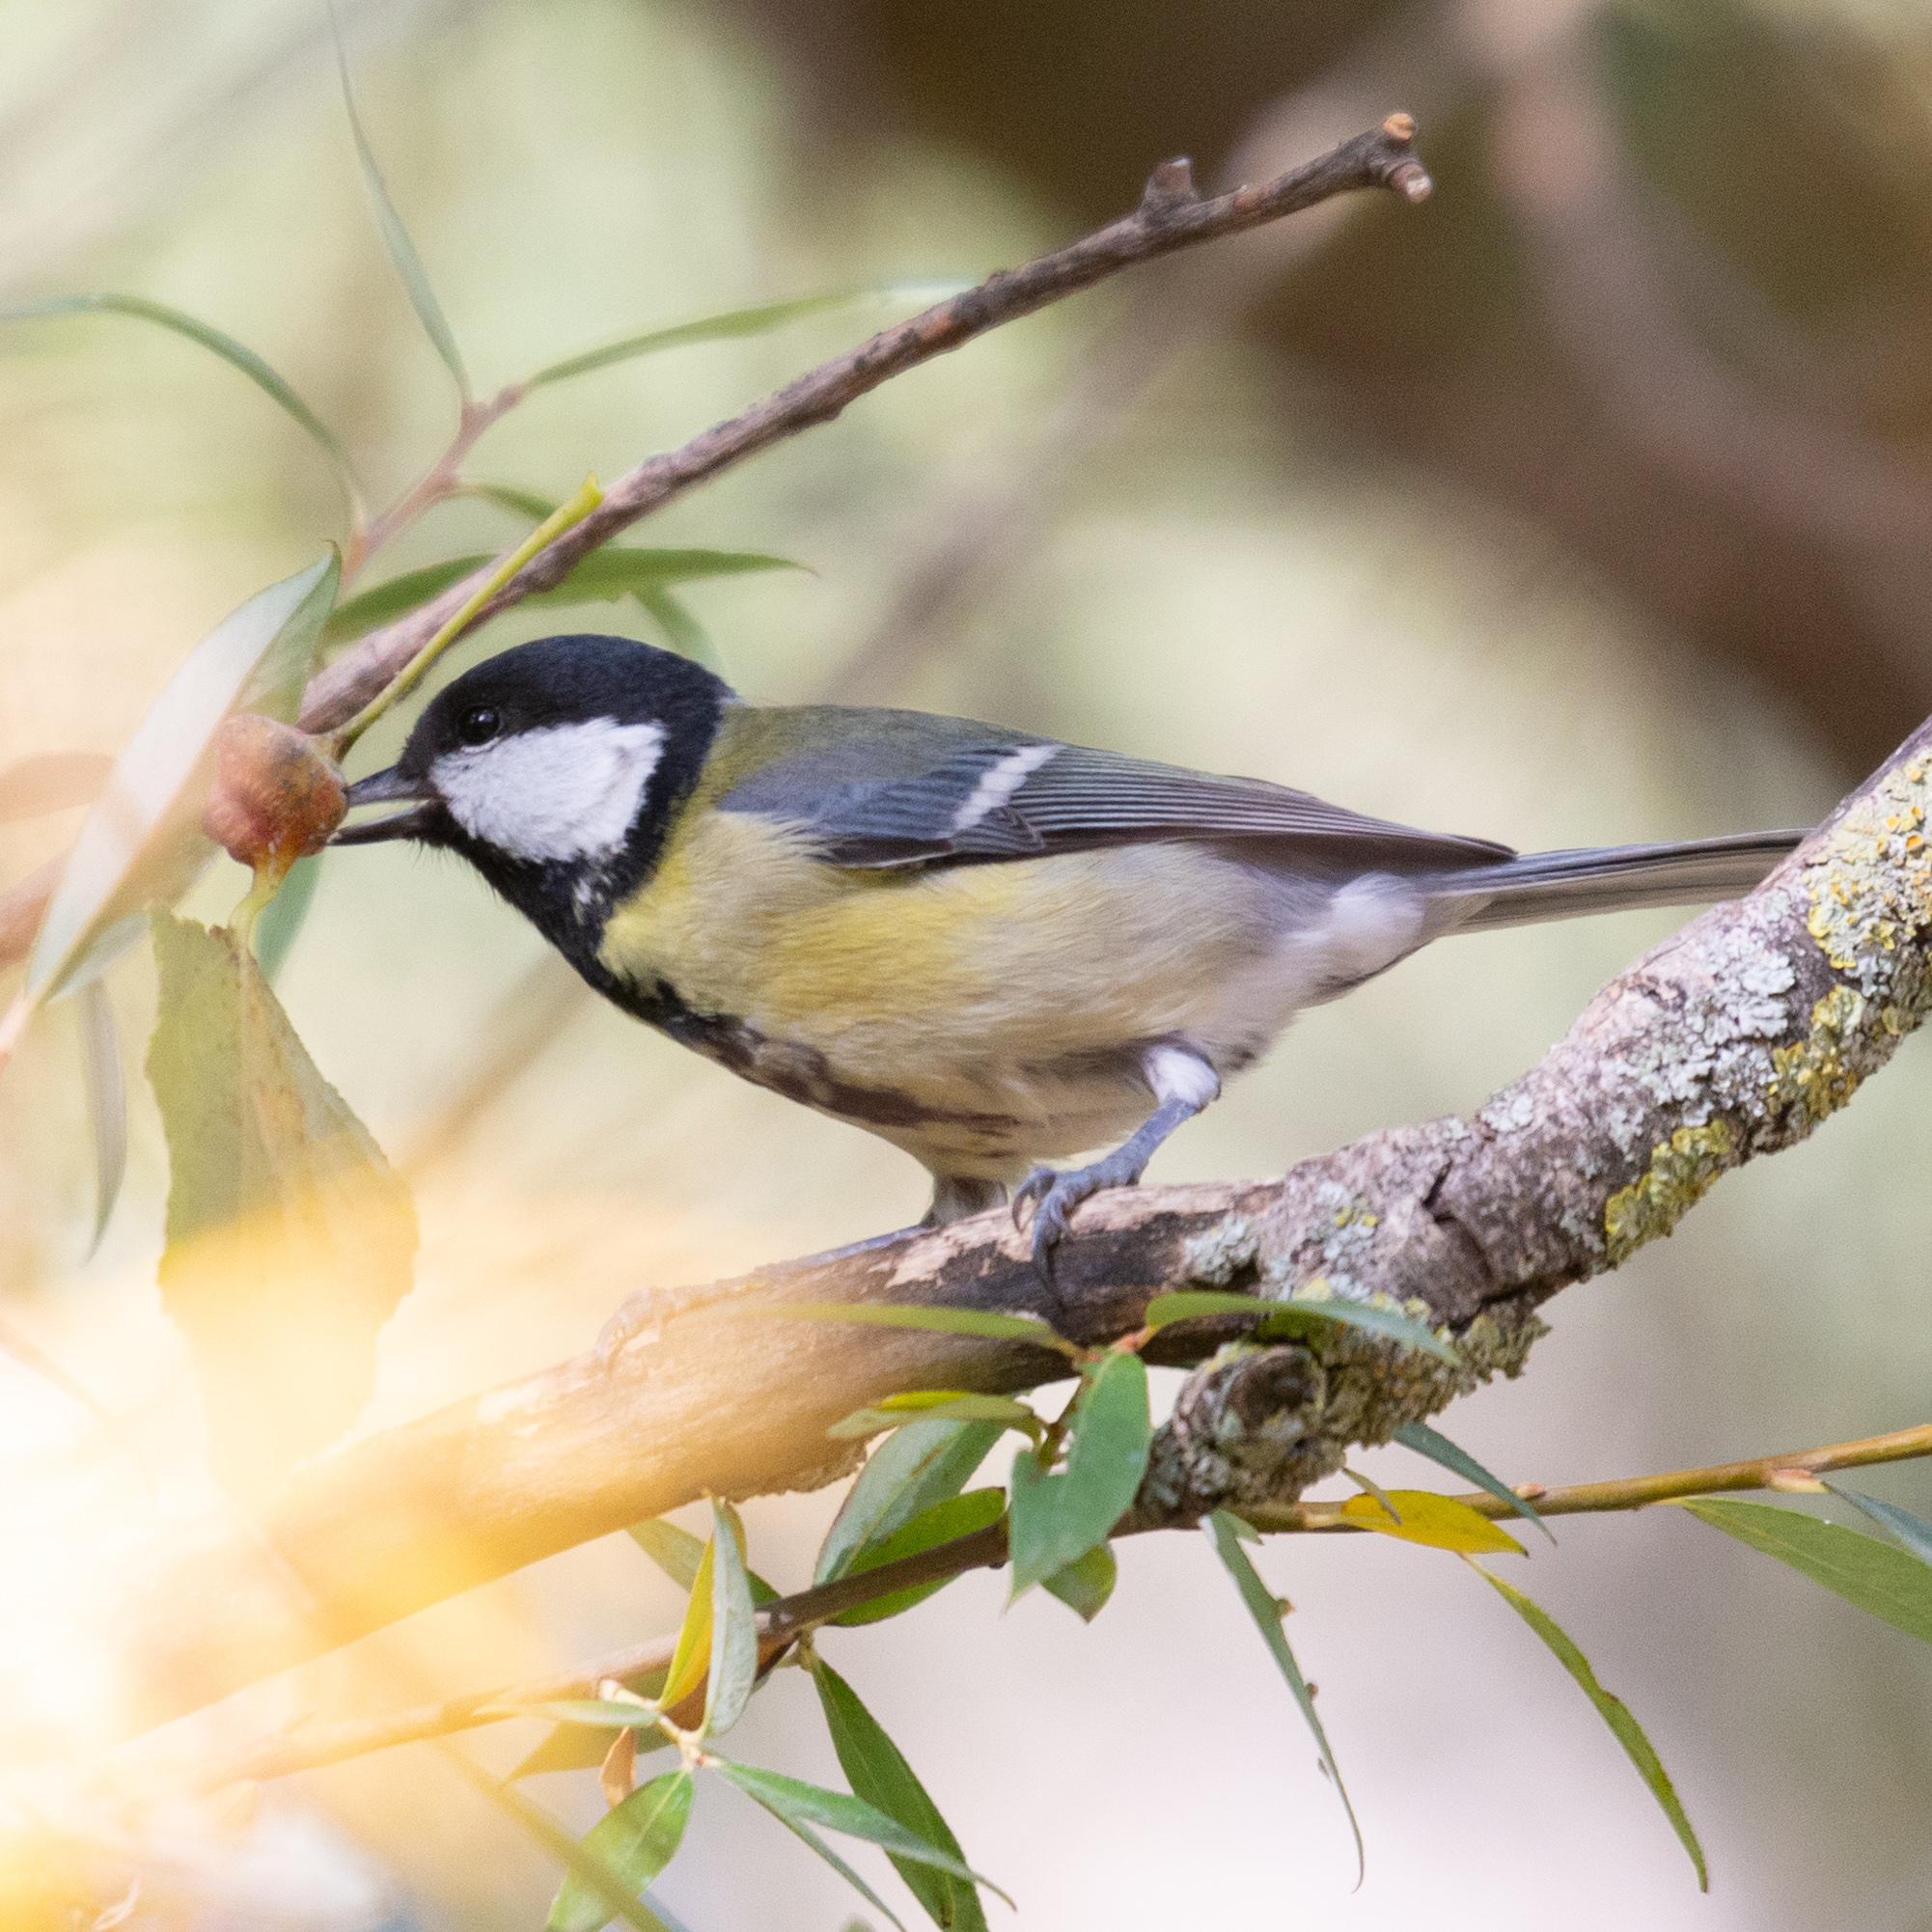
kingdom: Animalia
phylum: Chordata
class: Aves
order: Passeriformes
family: Paridae
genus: Parus
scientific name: Parus major
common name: Great tit
